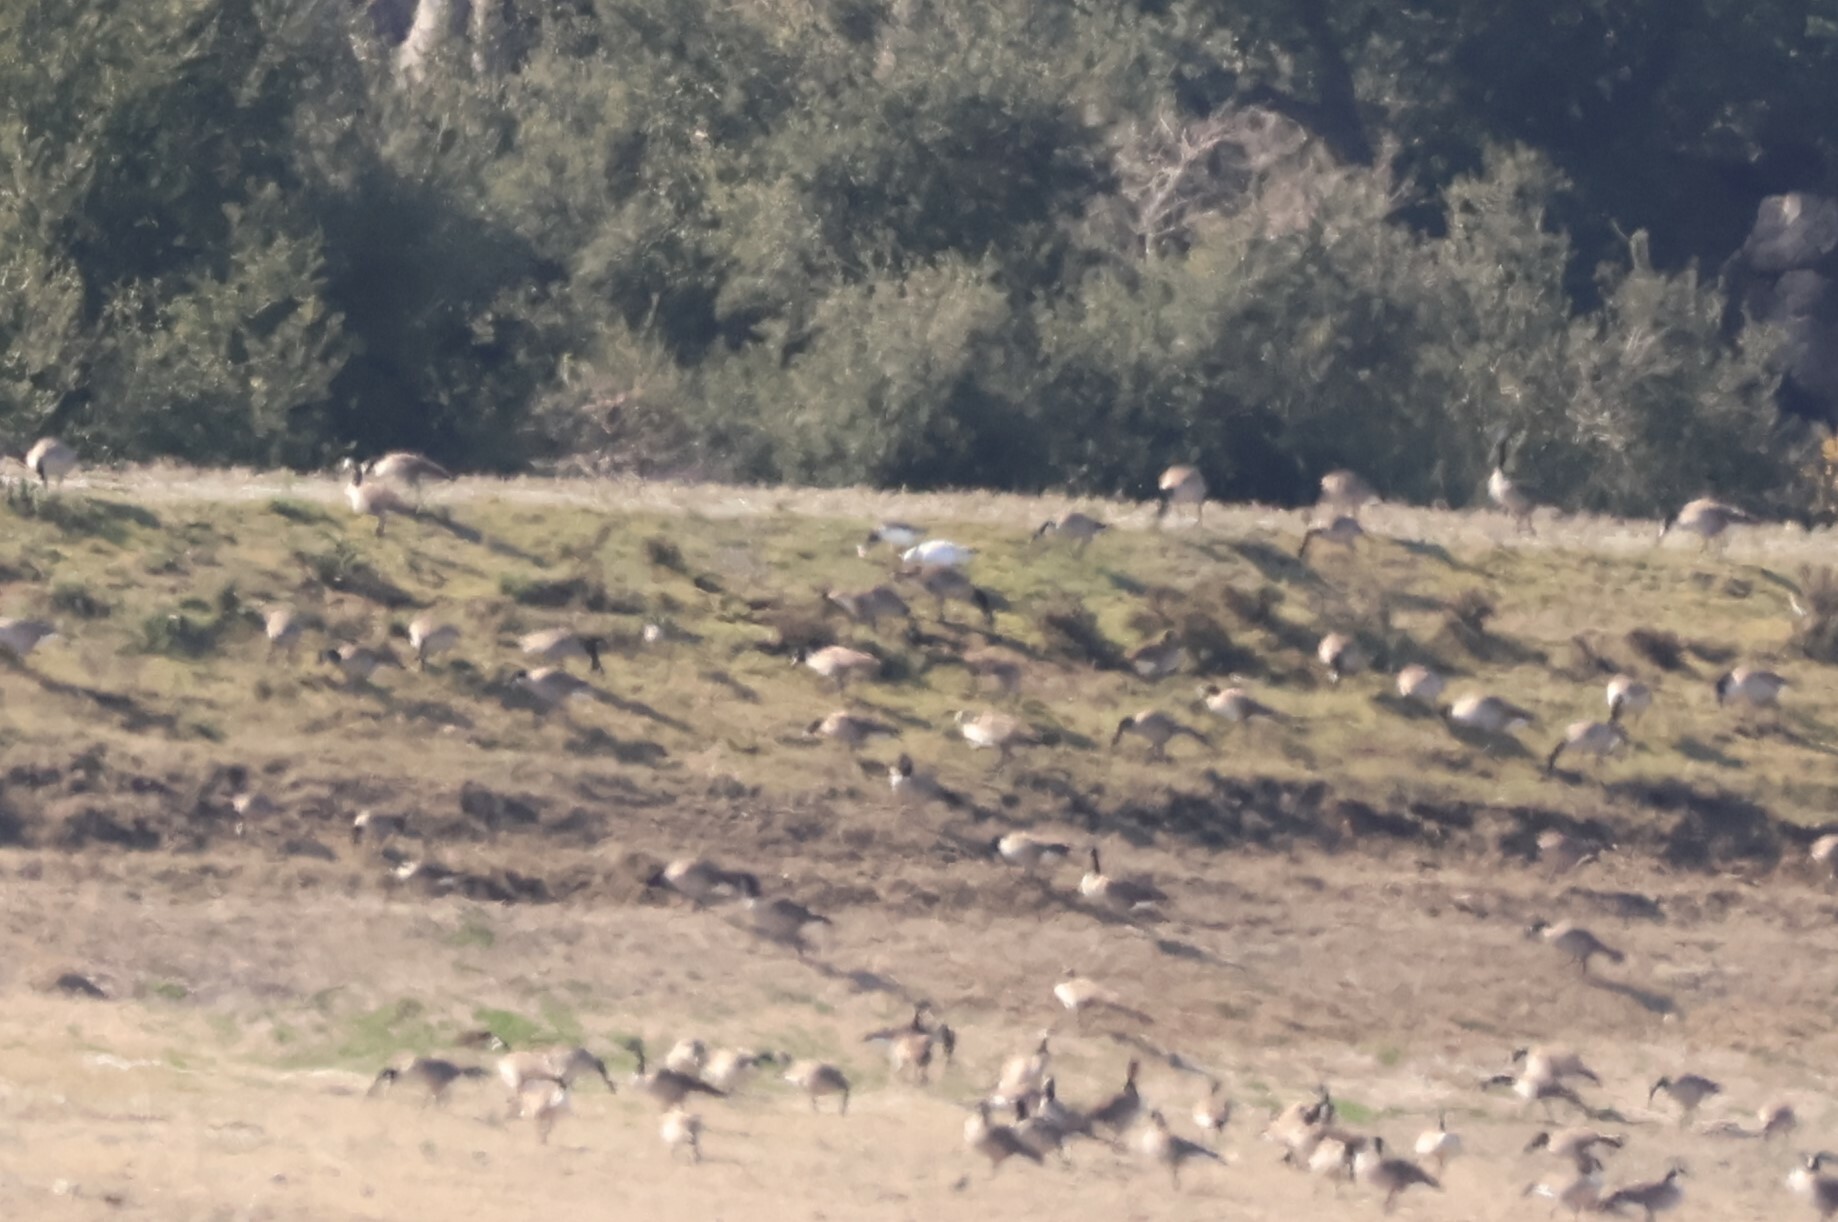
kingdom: Animalia
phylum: Chordata
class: Aves
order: Anseriformes
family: Anatidae
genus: Branta
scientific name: Branta canadensis
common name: Canada goose
